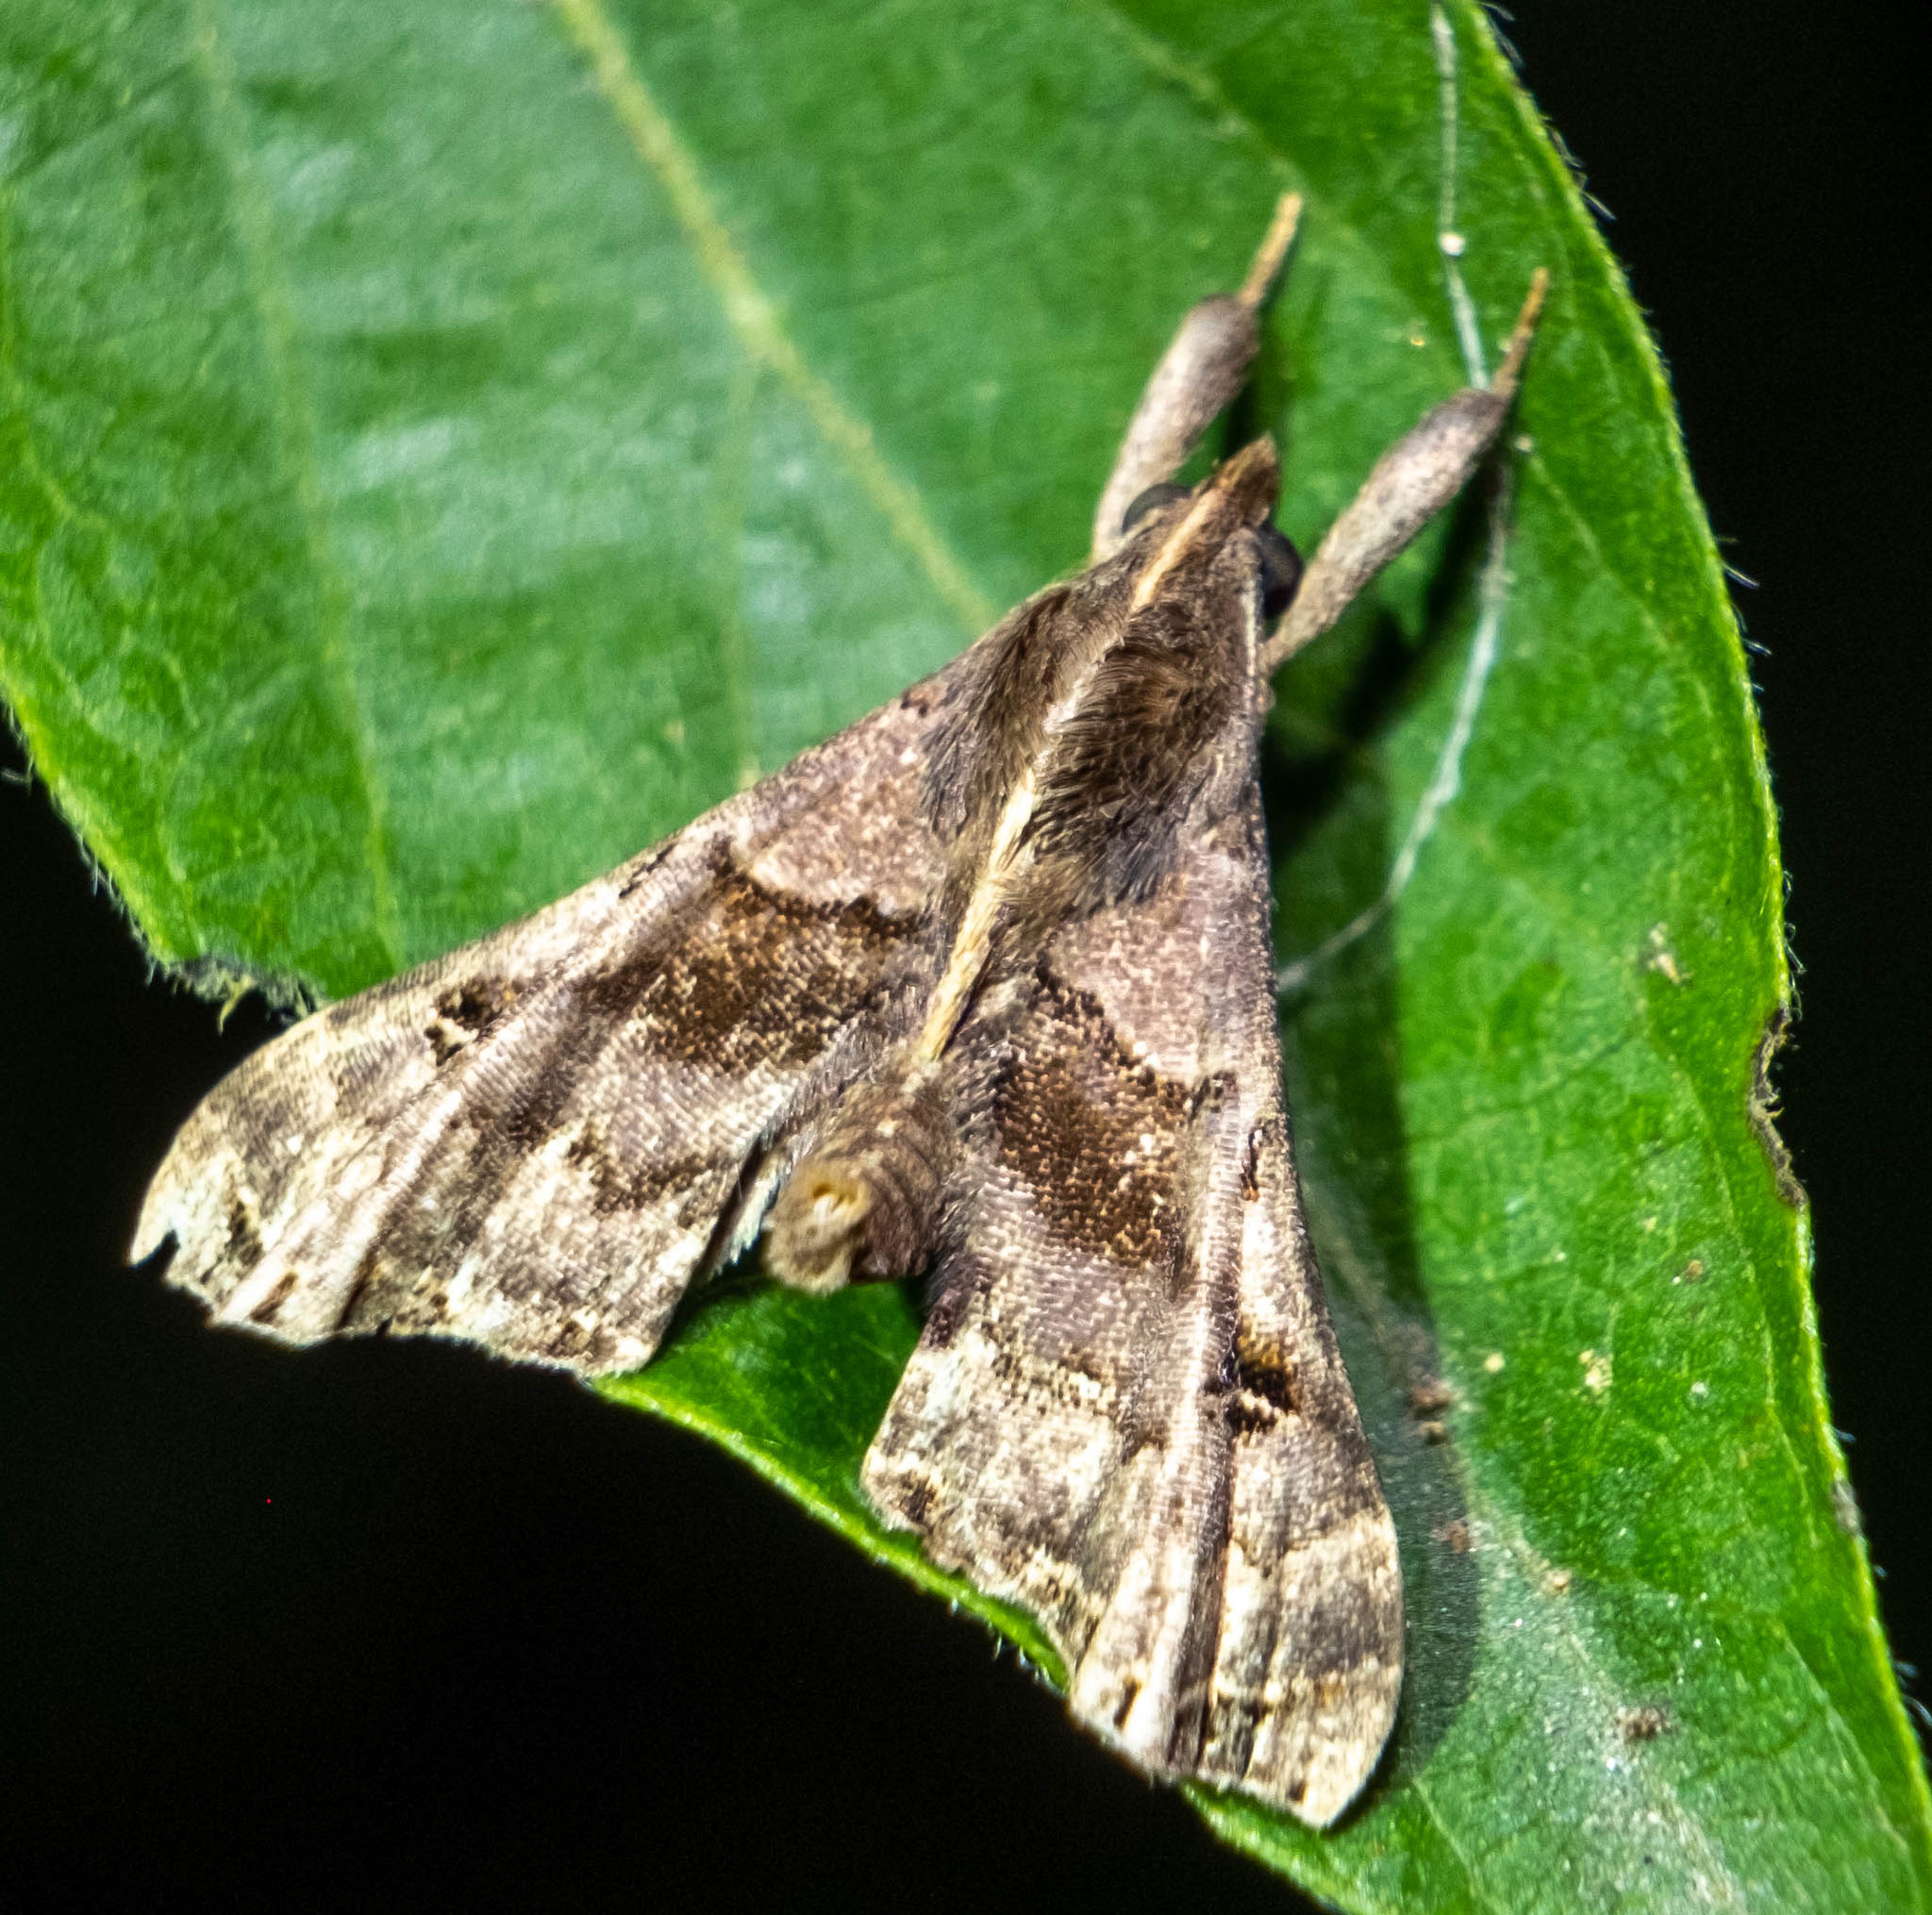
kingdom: Animalia
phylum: Arthropoda
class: Insecta
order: Lepidoptera
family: Erebidae
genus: Palthis
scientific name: Palthis asopialis
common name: Faint-spotted palthis moth
